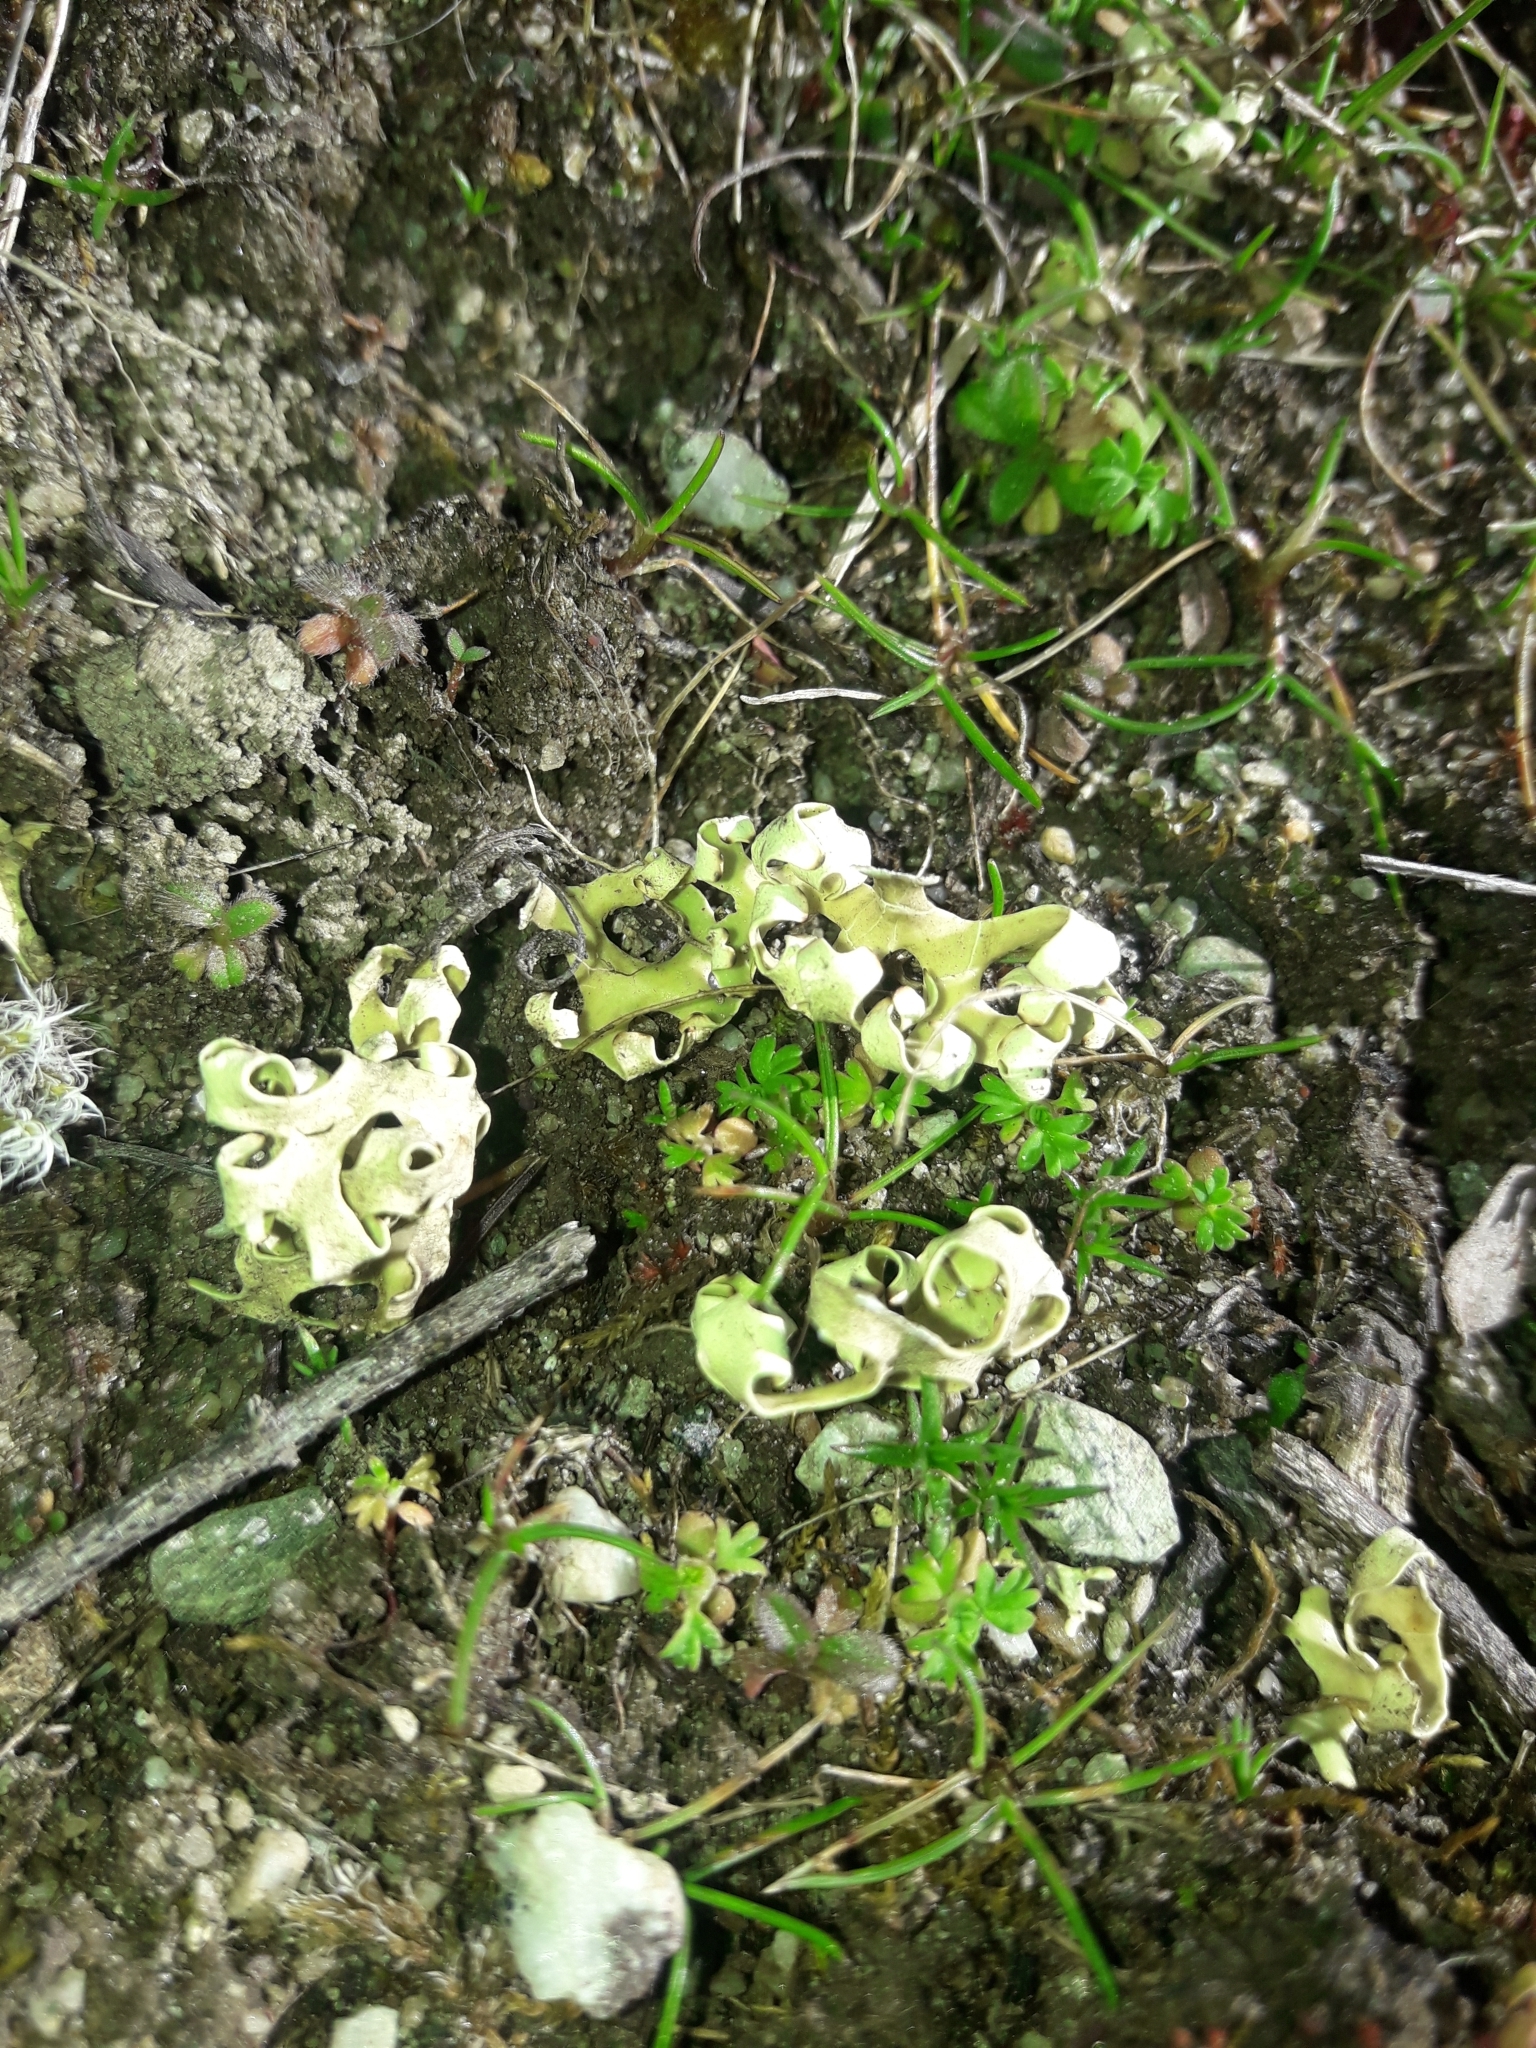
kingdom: Fungi
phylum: Ascomycota
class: Lecanoromycetes
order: Lecanorales
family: Parmeliaceae
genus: Xanthoparmelia
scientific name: Xanthoparmelia semiviridis
